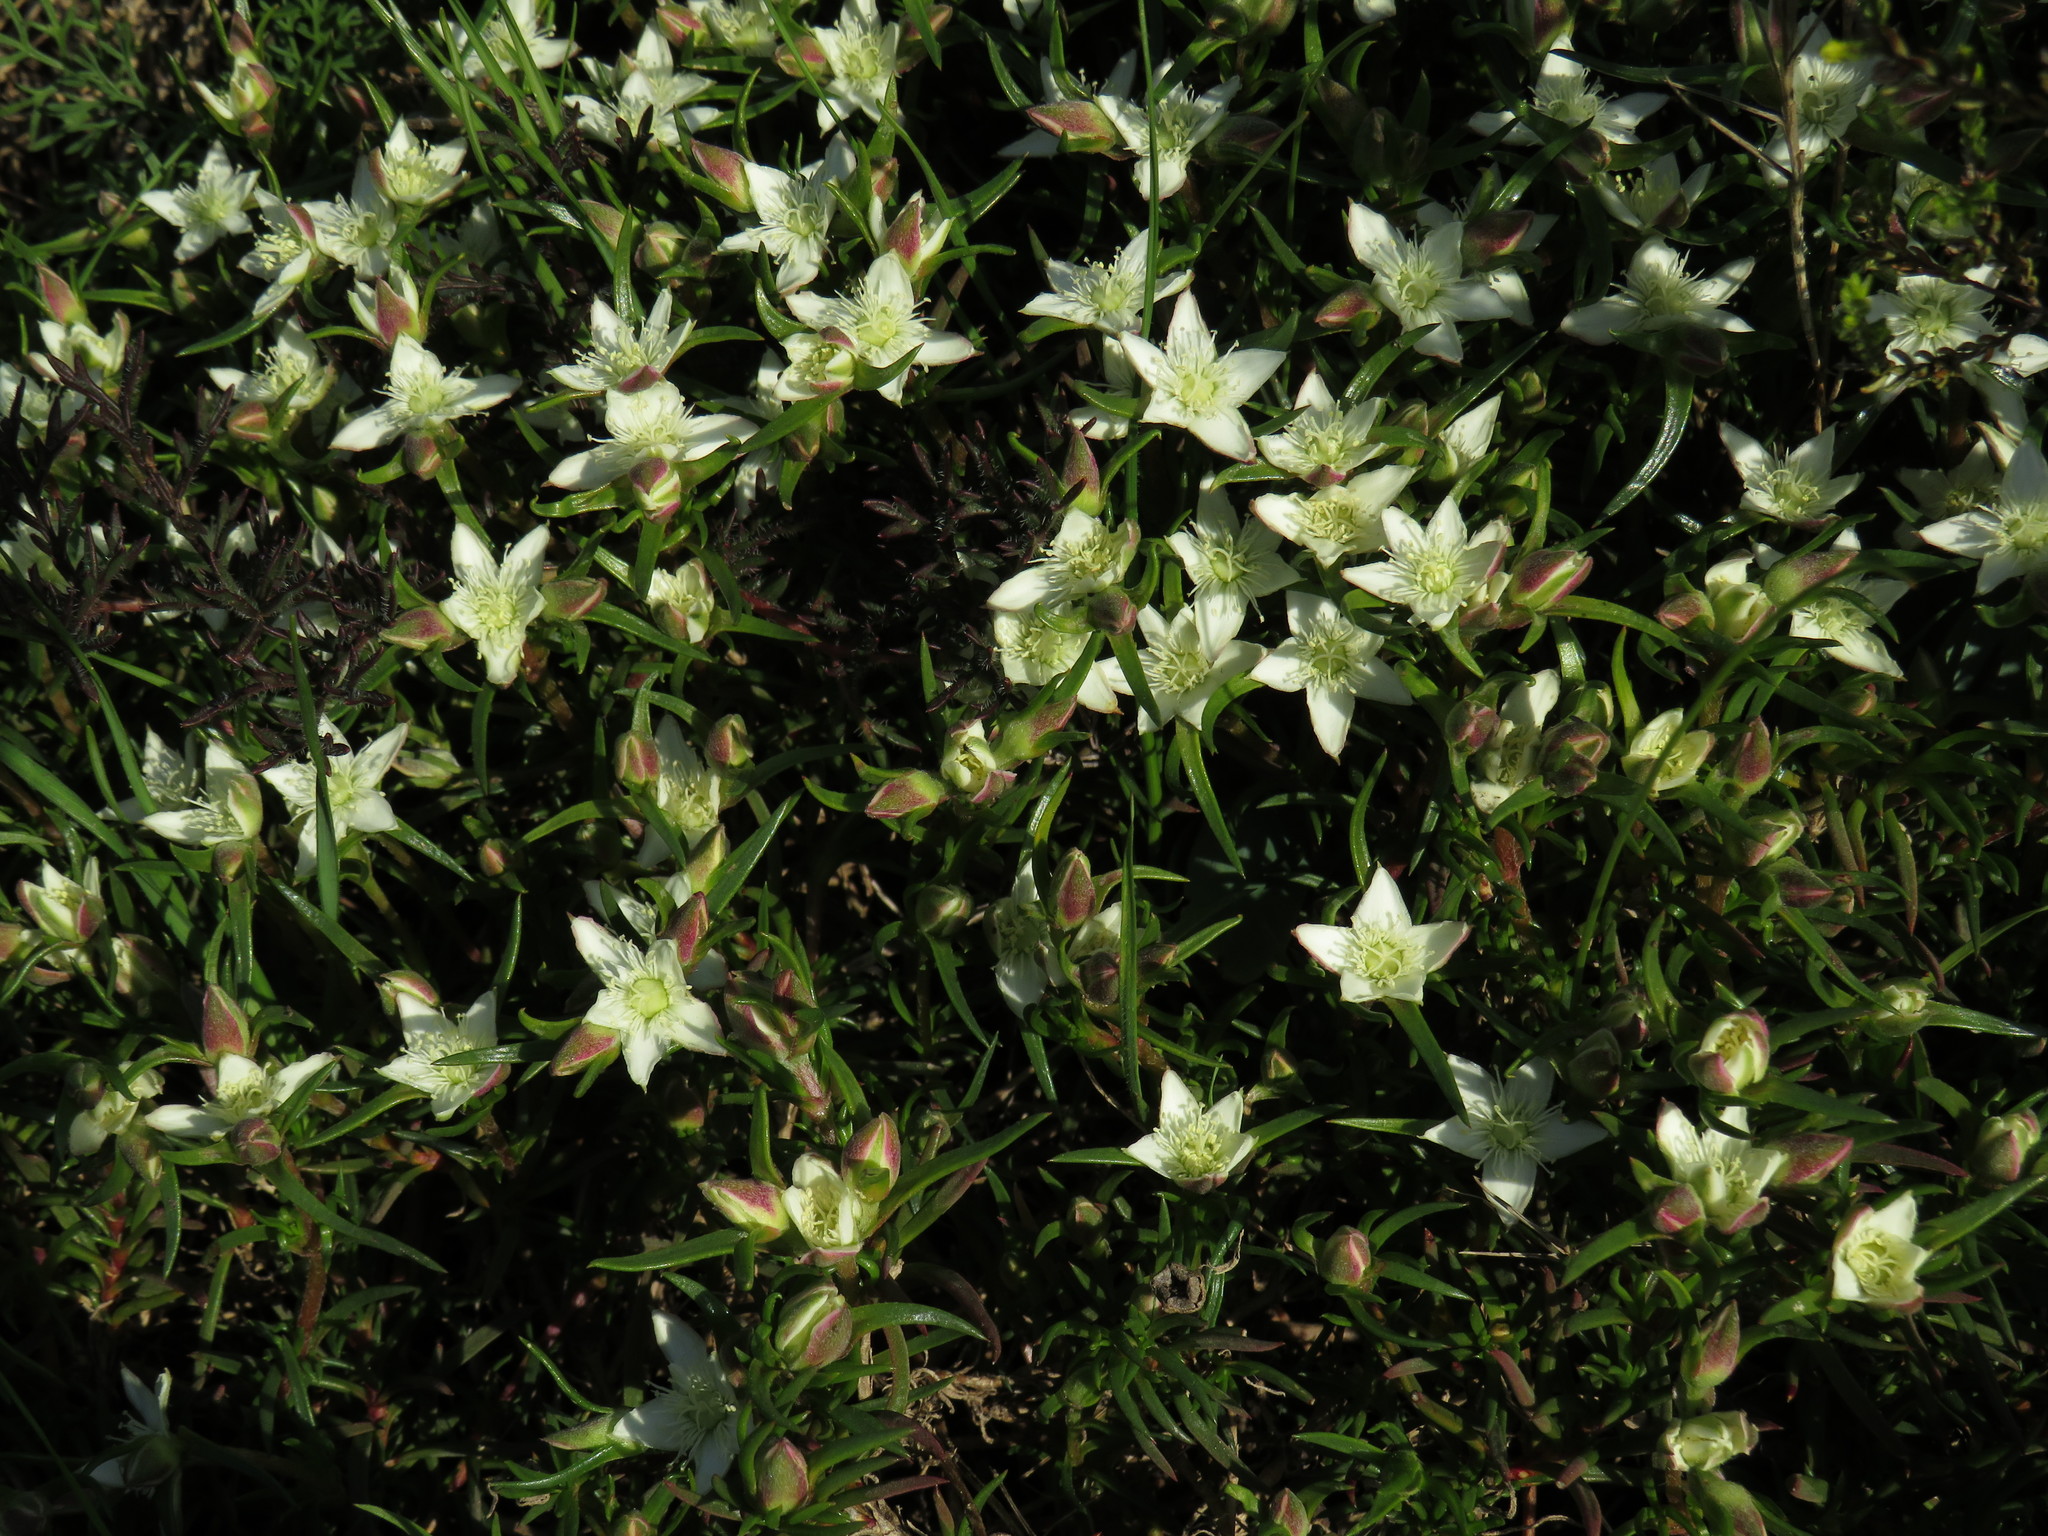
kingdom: Plantae
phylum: Tracheophyta
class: Magnoliopsida
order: Caryophyllales
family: Aizoaceae
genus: Aizoon
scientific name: Aizoon sarmentosum
